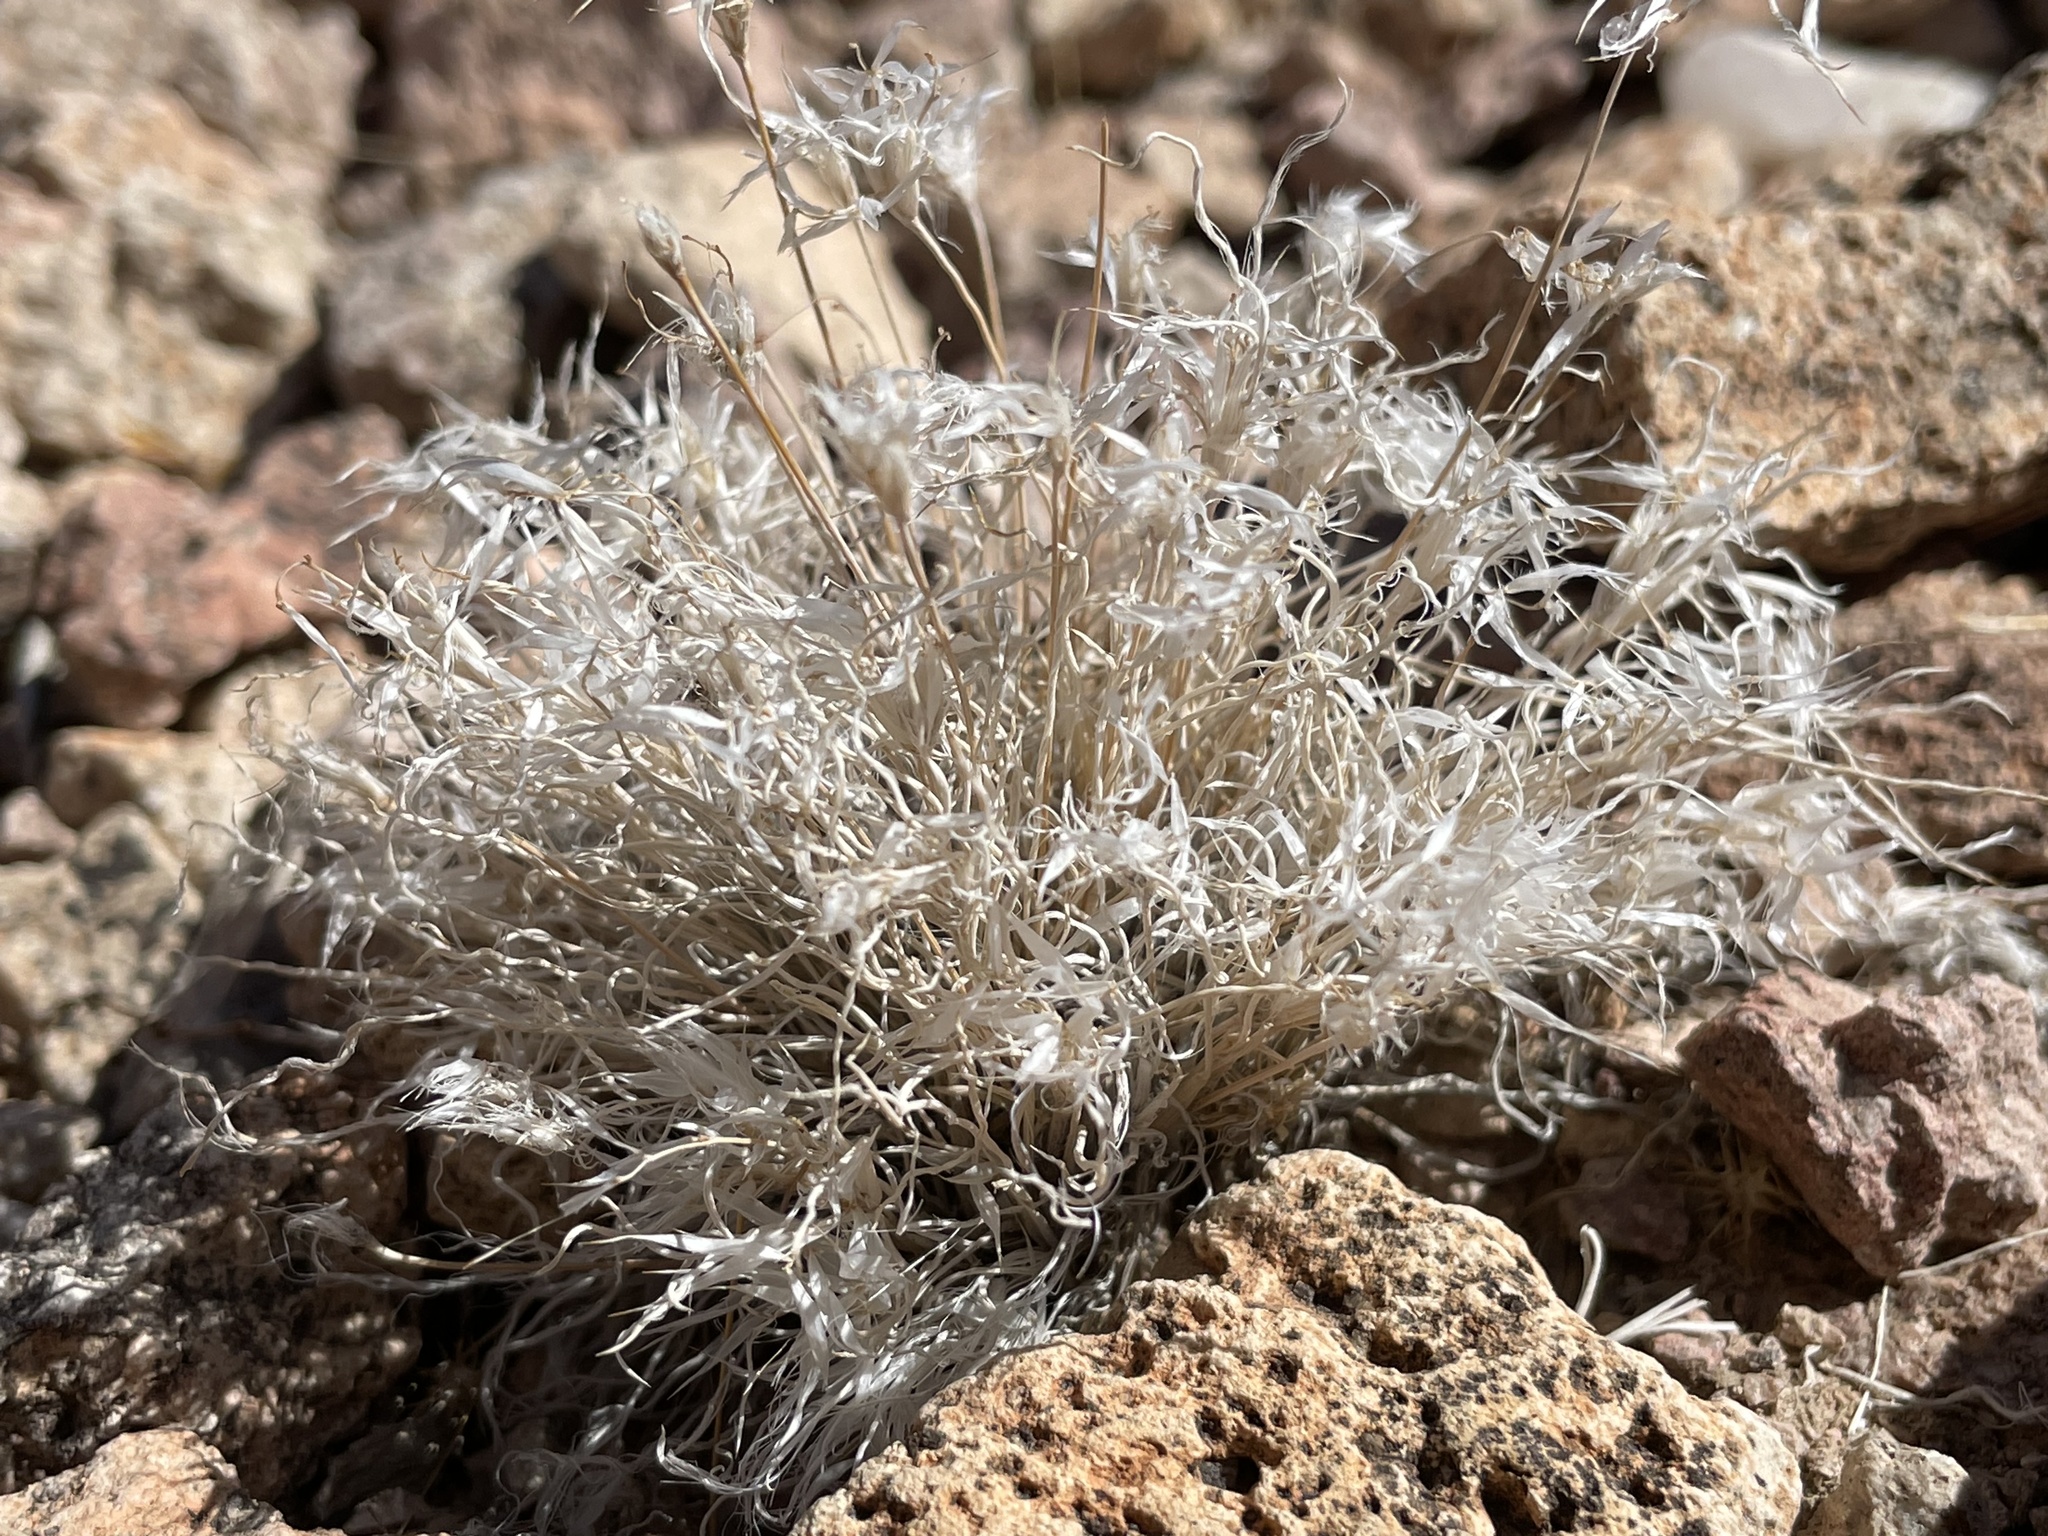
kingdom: Plantae
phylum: Tracheophyta
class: Liliopsida
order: Poales
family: Poaceae
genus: Dasyochloa
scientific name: Dasyochloa pulchella
